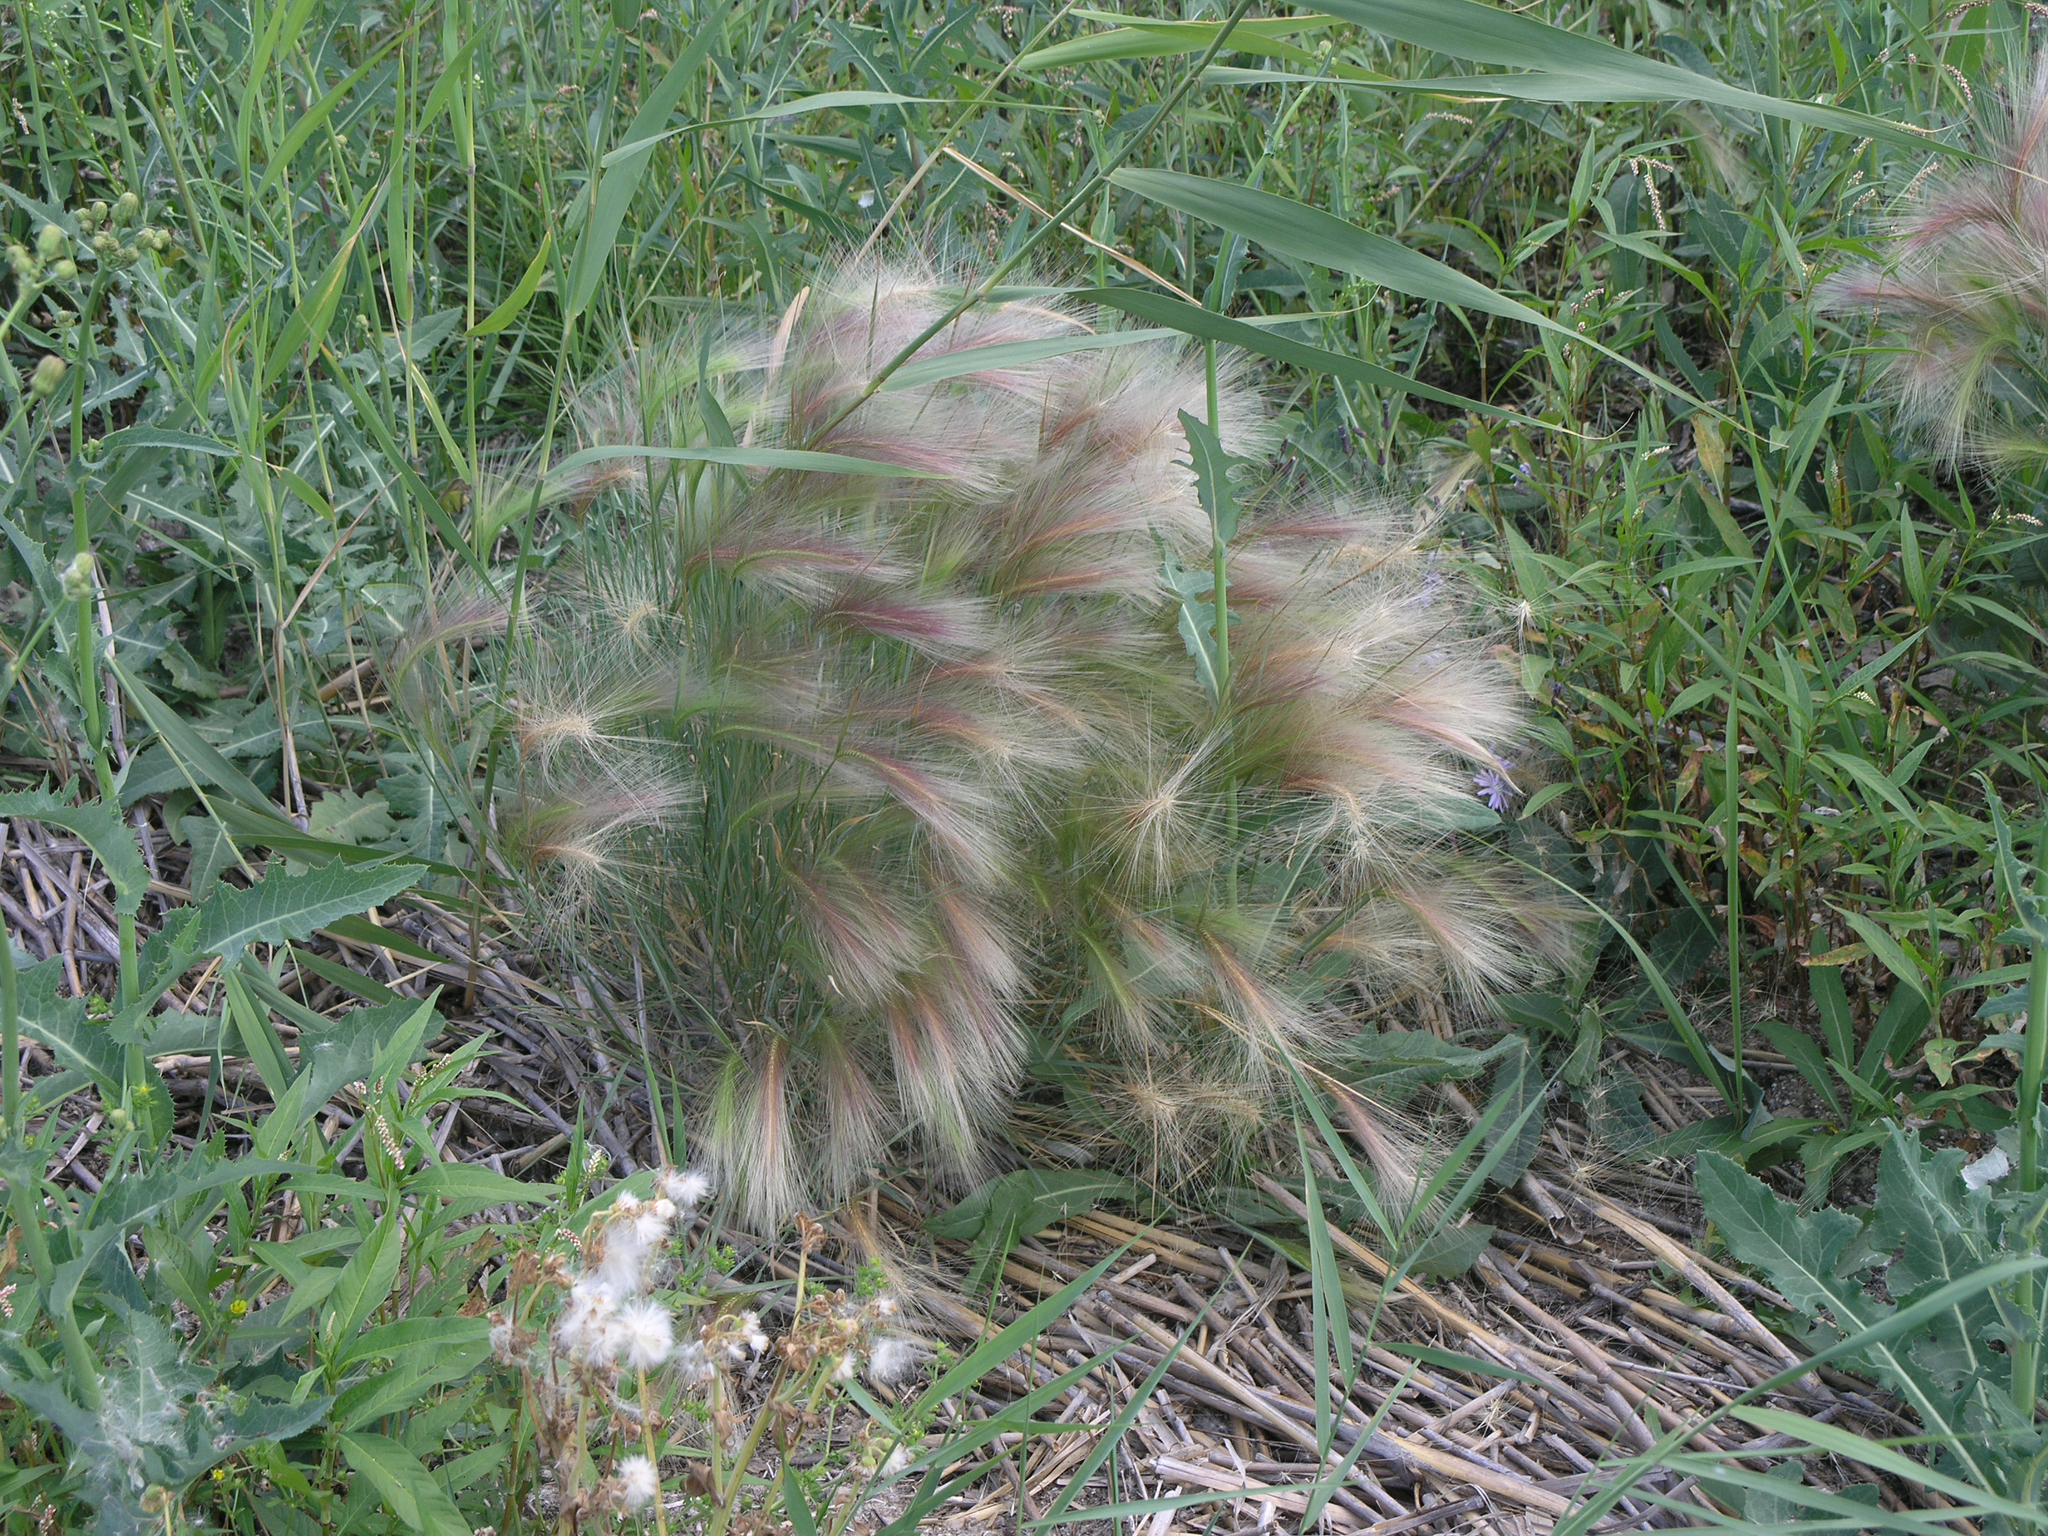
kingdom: Plantae
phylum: Tracheophyta
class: Liliopsida
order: Poales
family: Poaceae
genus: Hordeum
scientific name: Hordeum jubatum
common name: Foxtail barley
